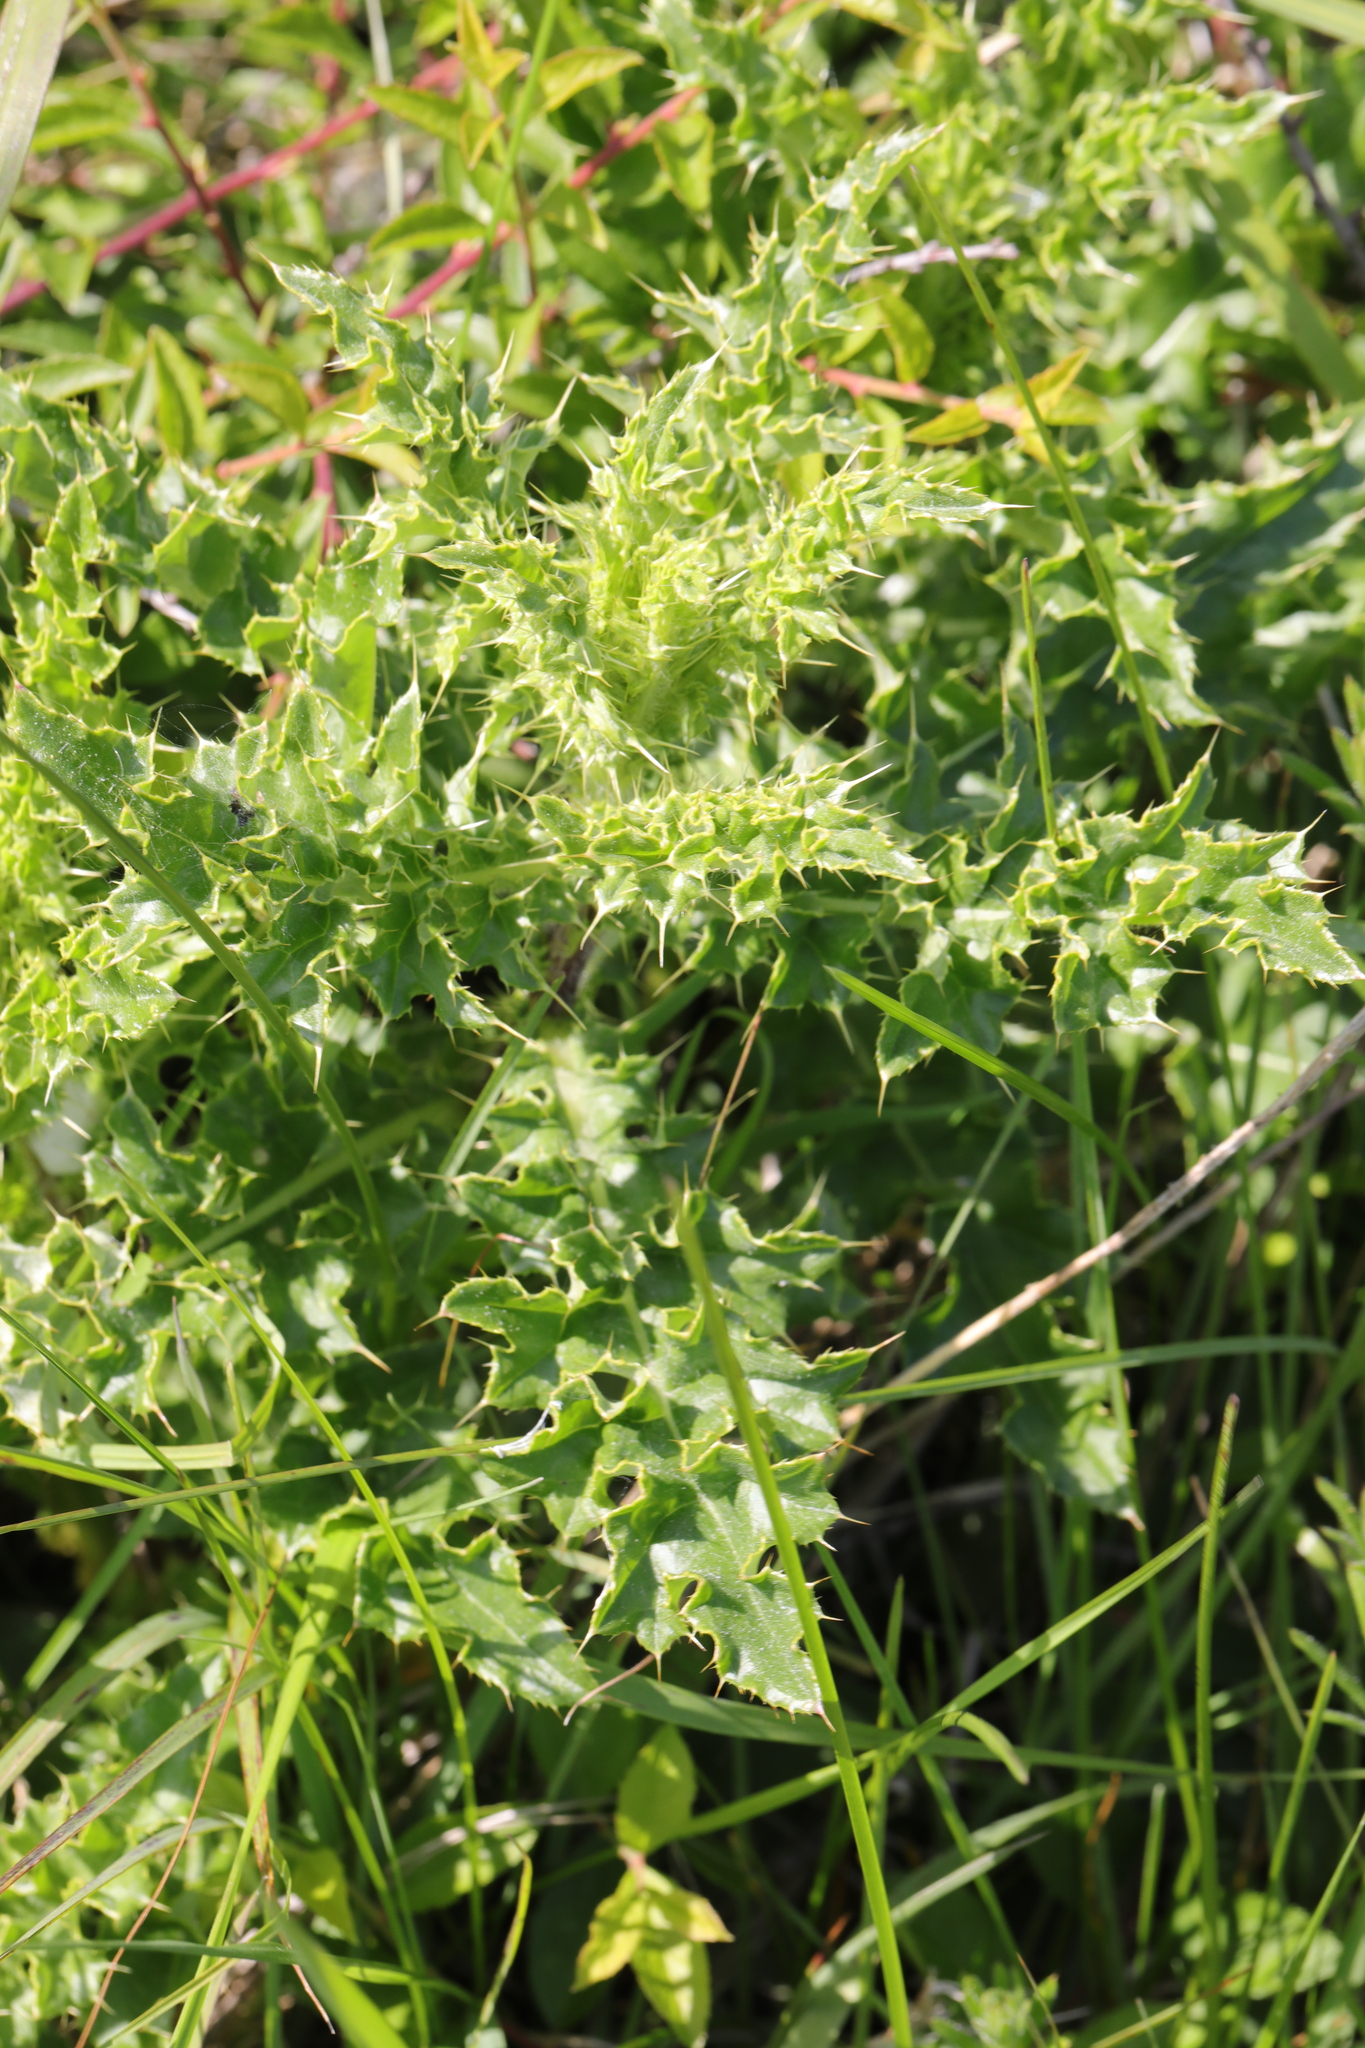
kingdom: Plantae
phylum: Tracheophyta
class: Magnoliopsida
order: Asterales
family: Asteraceae
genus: Cirsium
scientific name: Cirsium arvense
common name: Creeping thistle
